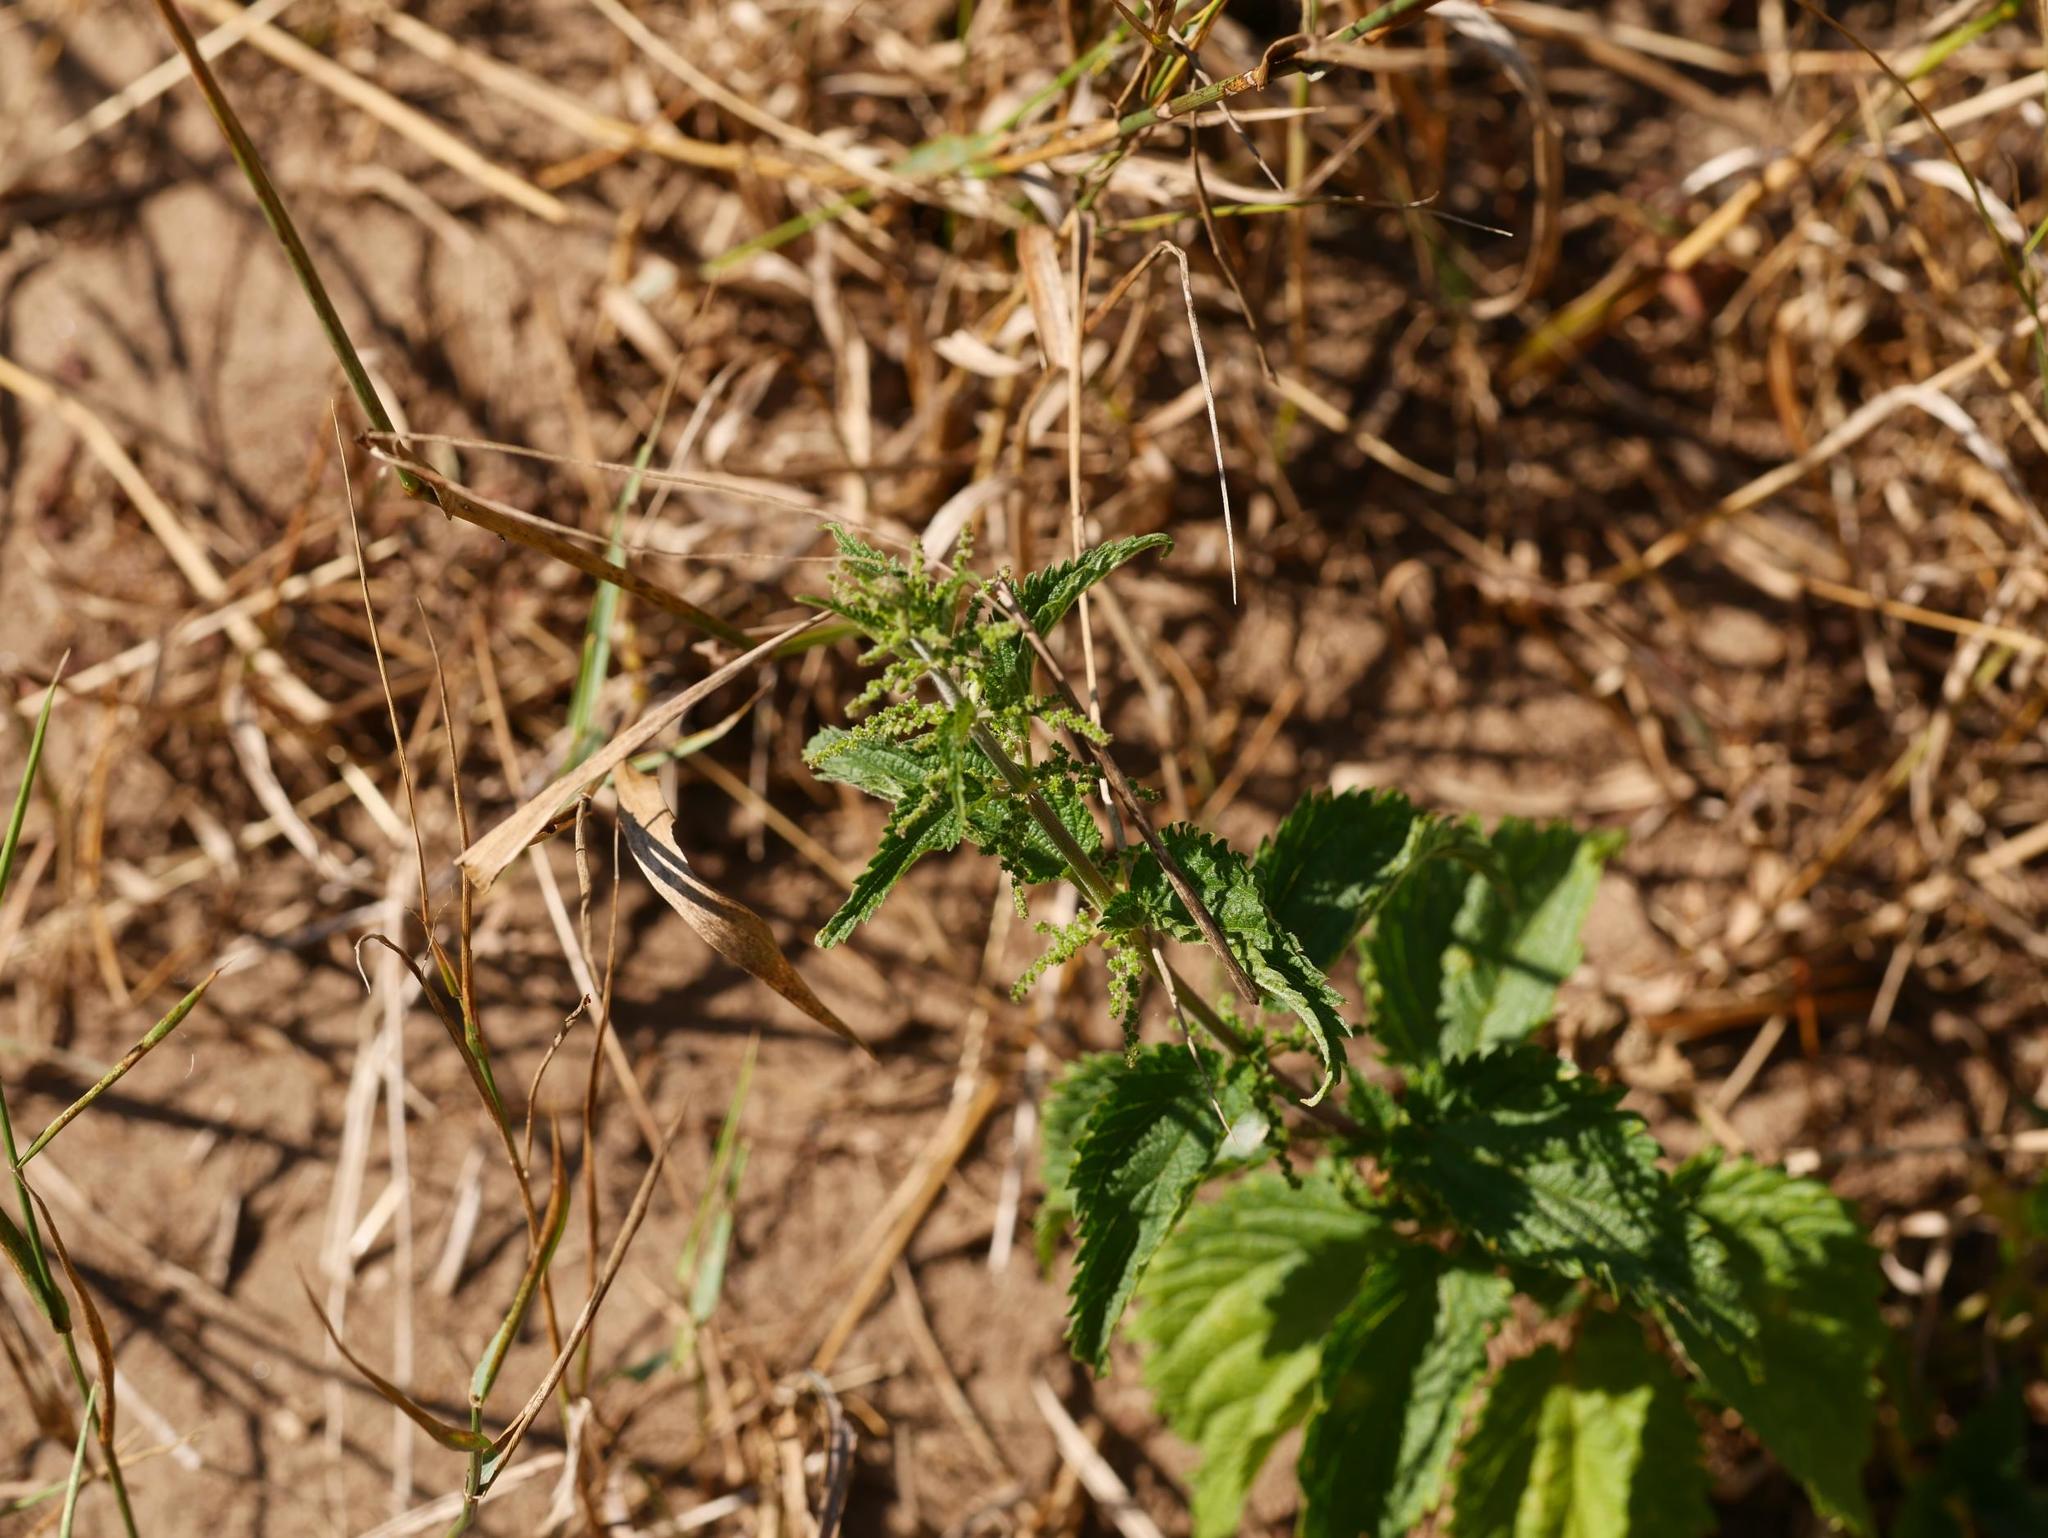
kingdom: Plantae
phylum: Tracheophyta
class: Magnoliopsida
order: Rosales
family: Urticaceae
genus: Urtica
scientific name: Urtica dioica
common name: Common nettle
